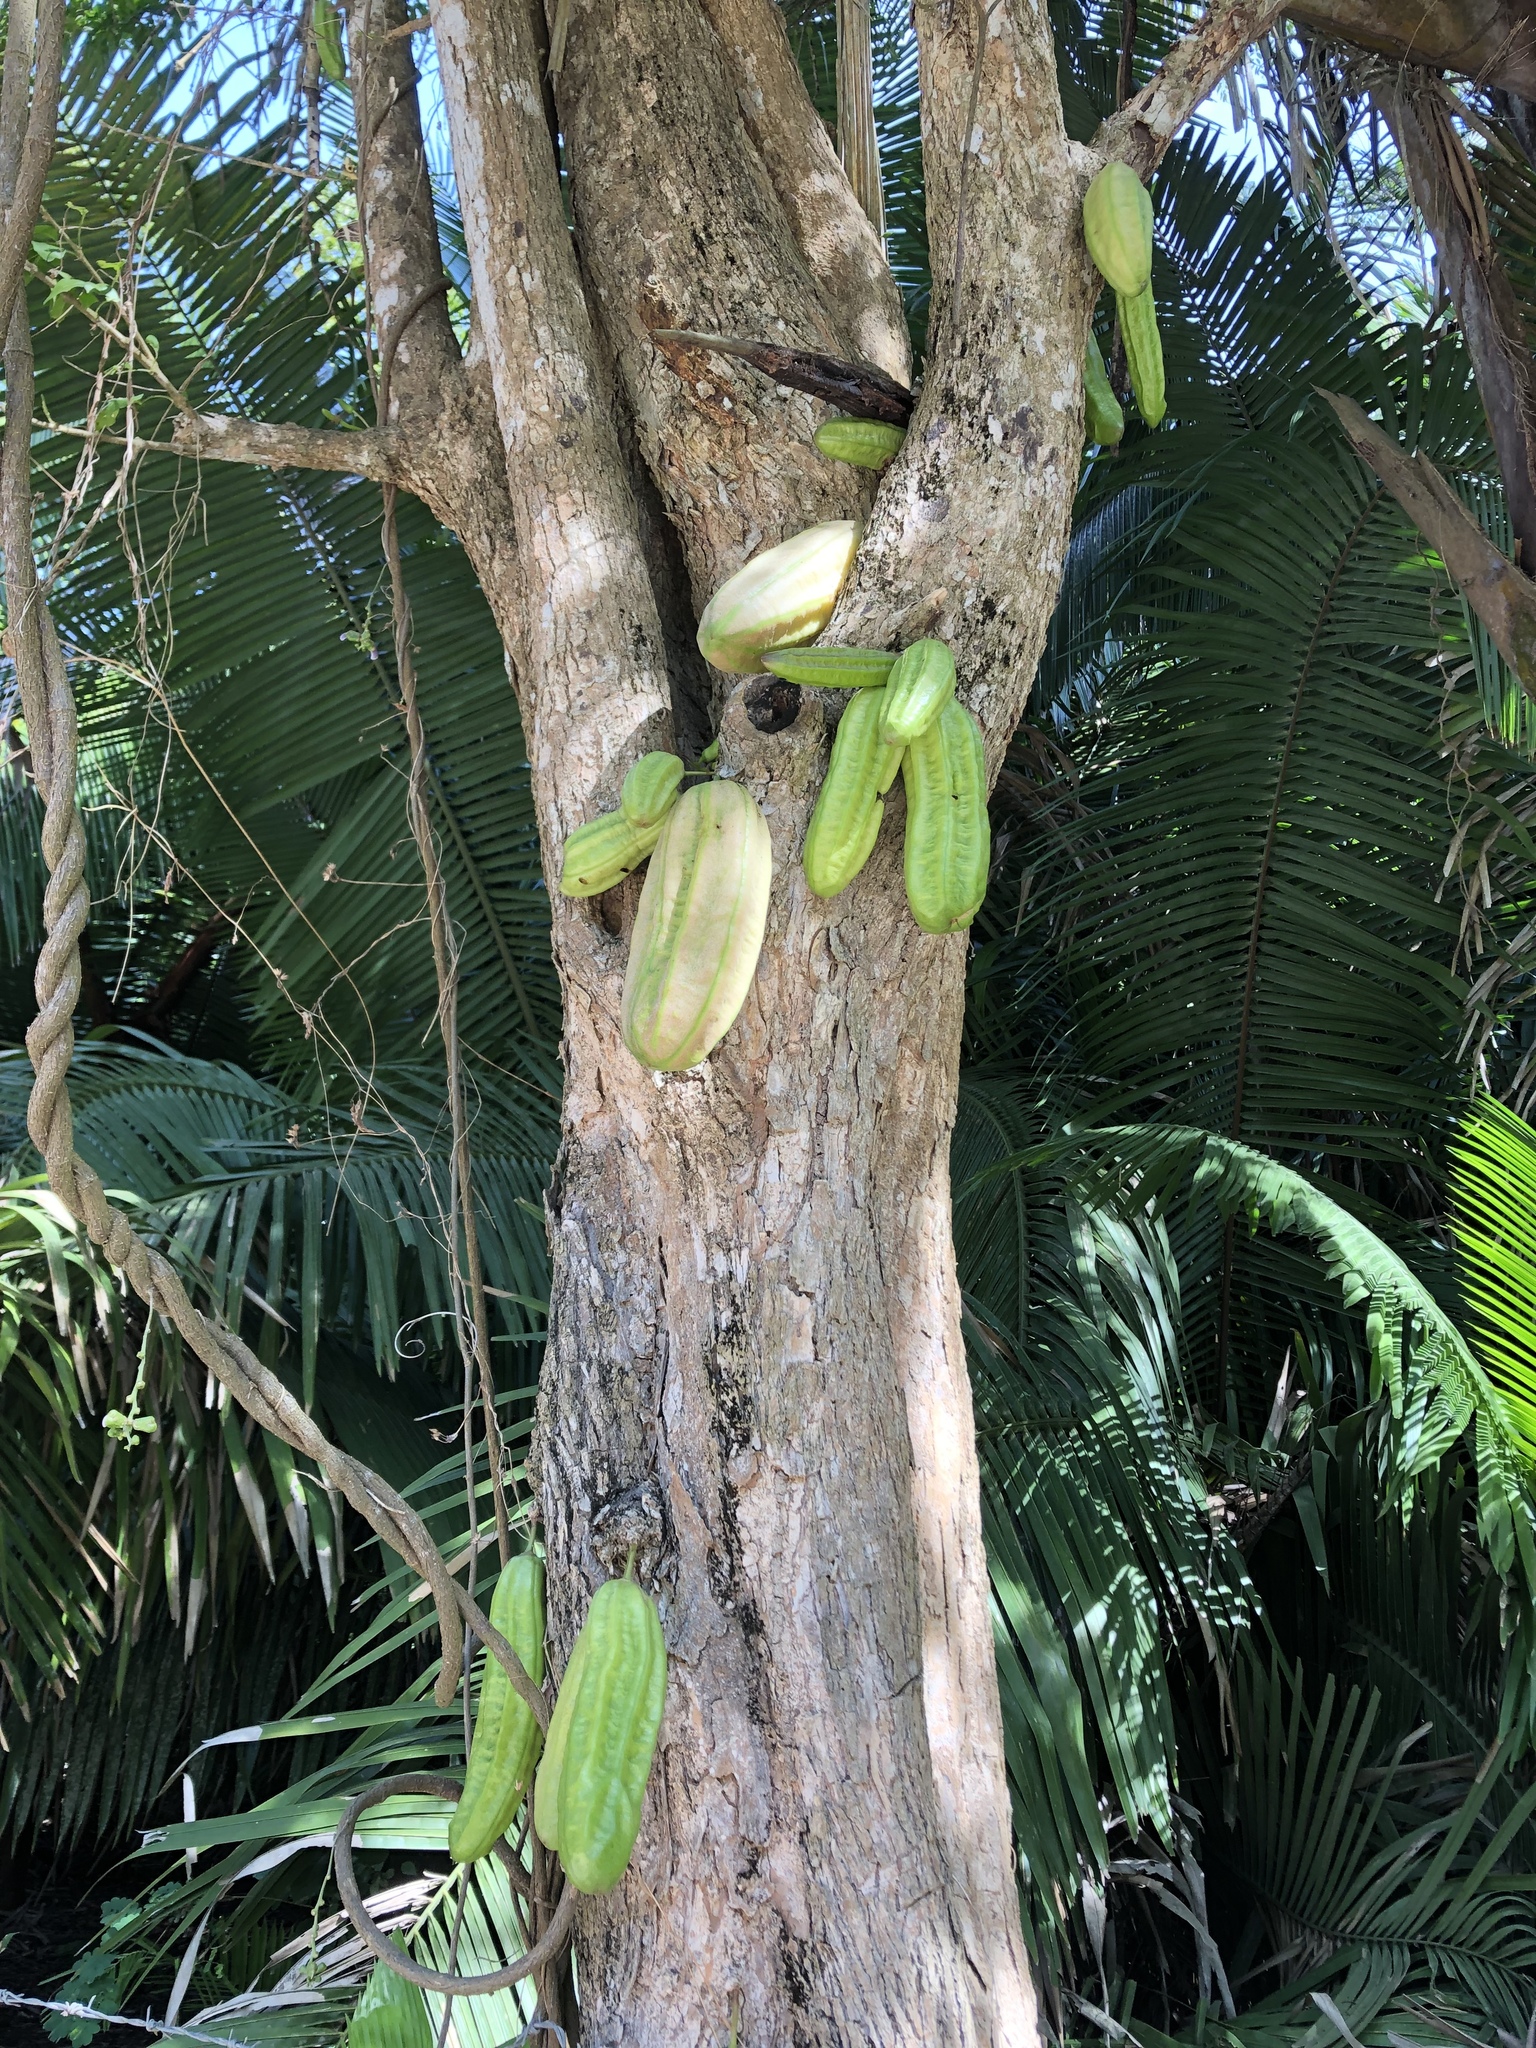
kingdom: Plantae
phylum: Tracheophyta
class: Magnoliopsida
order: Malvales
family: Malvaceae
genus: Theobroma
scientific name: Theobroma cacao
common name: Cocoa
